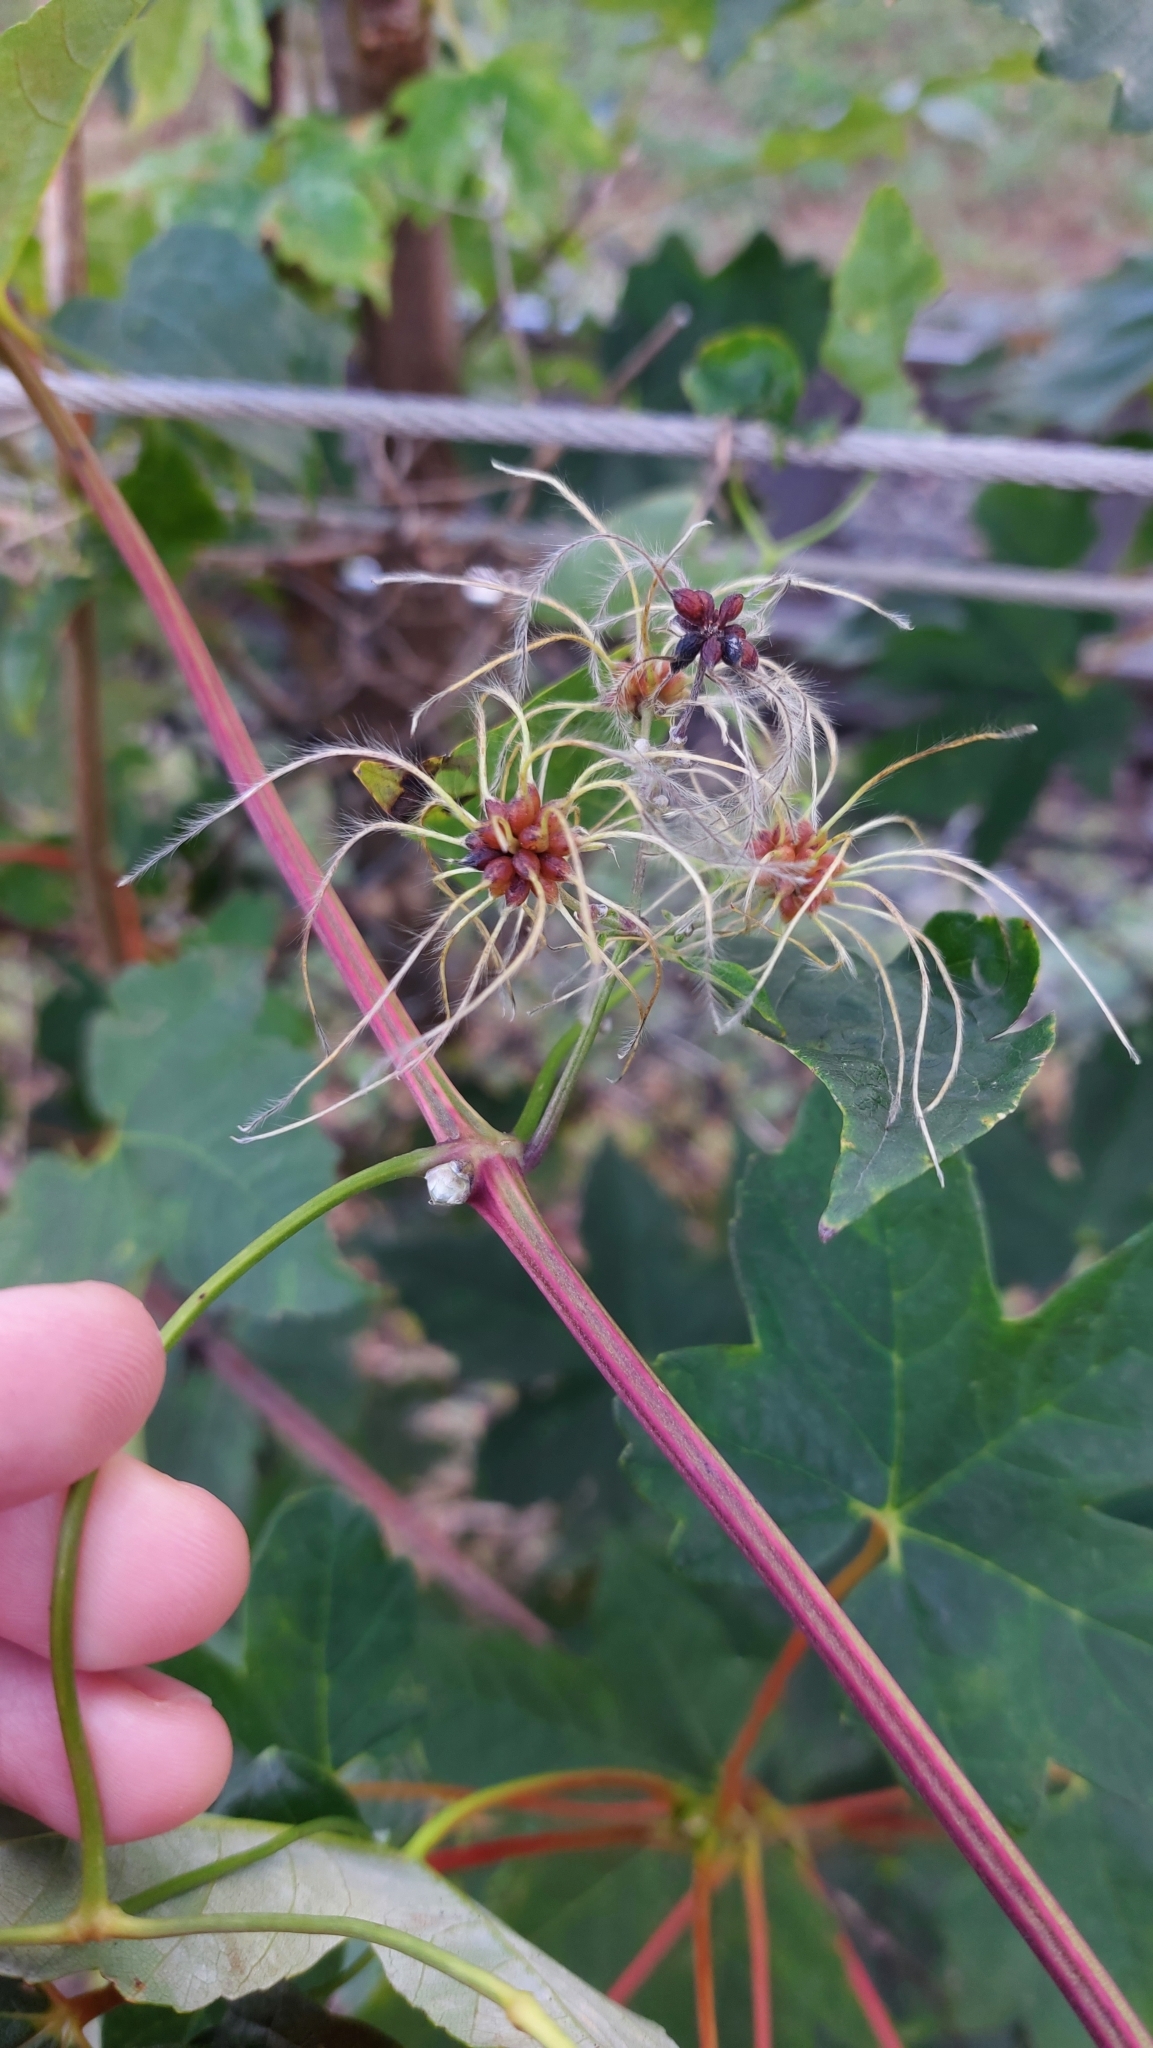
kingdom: Plantae
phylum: Tracheophyta
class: Magnoliopsida
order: Ranunculales
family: Ranunculaceae
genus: Clematis
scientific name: Clematis vitalba
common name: Evergreen clematis
